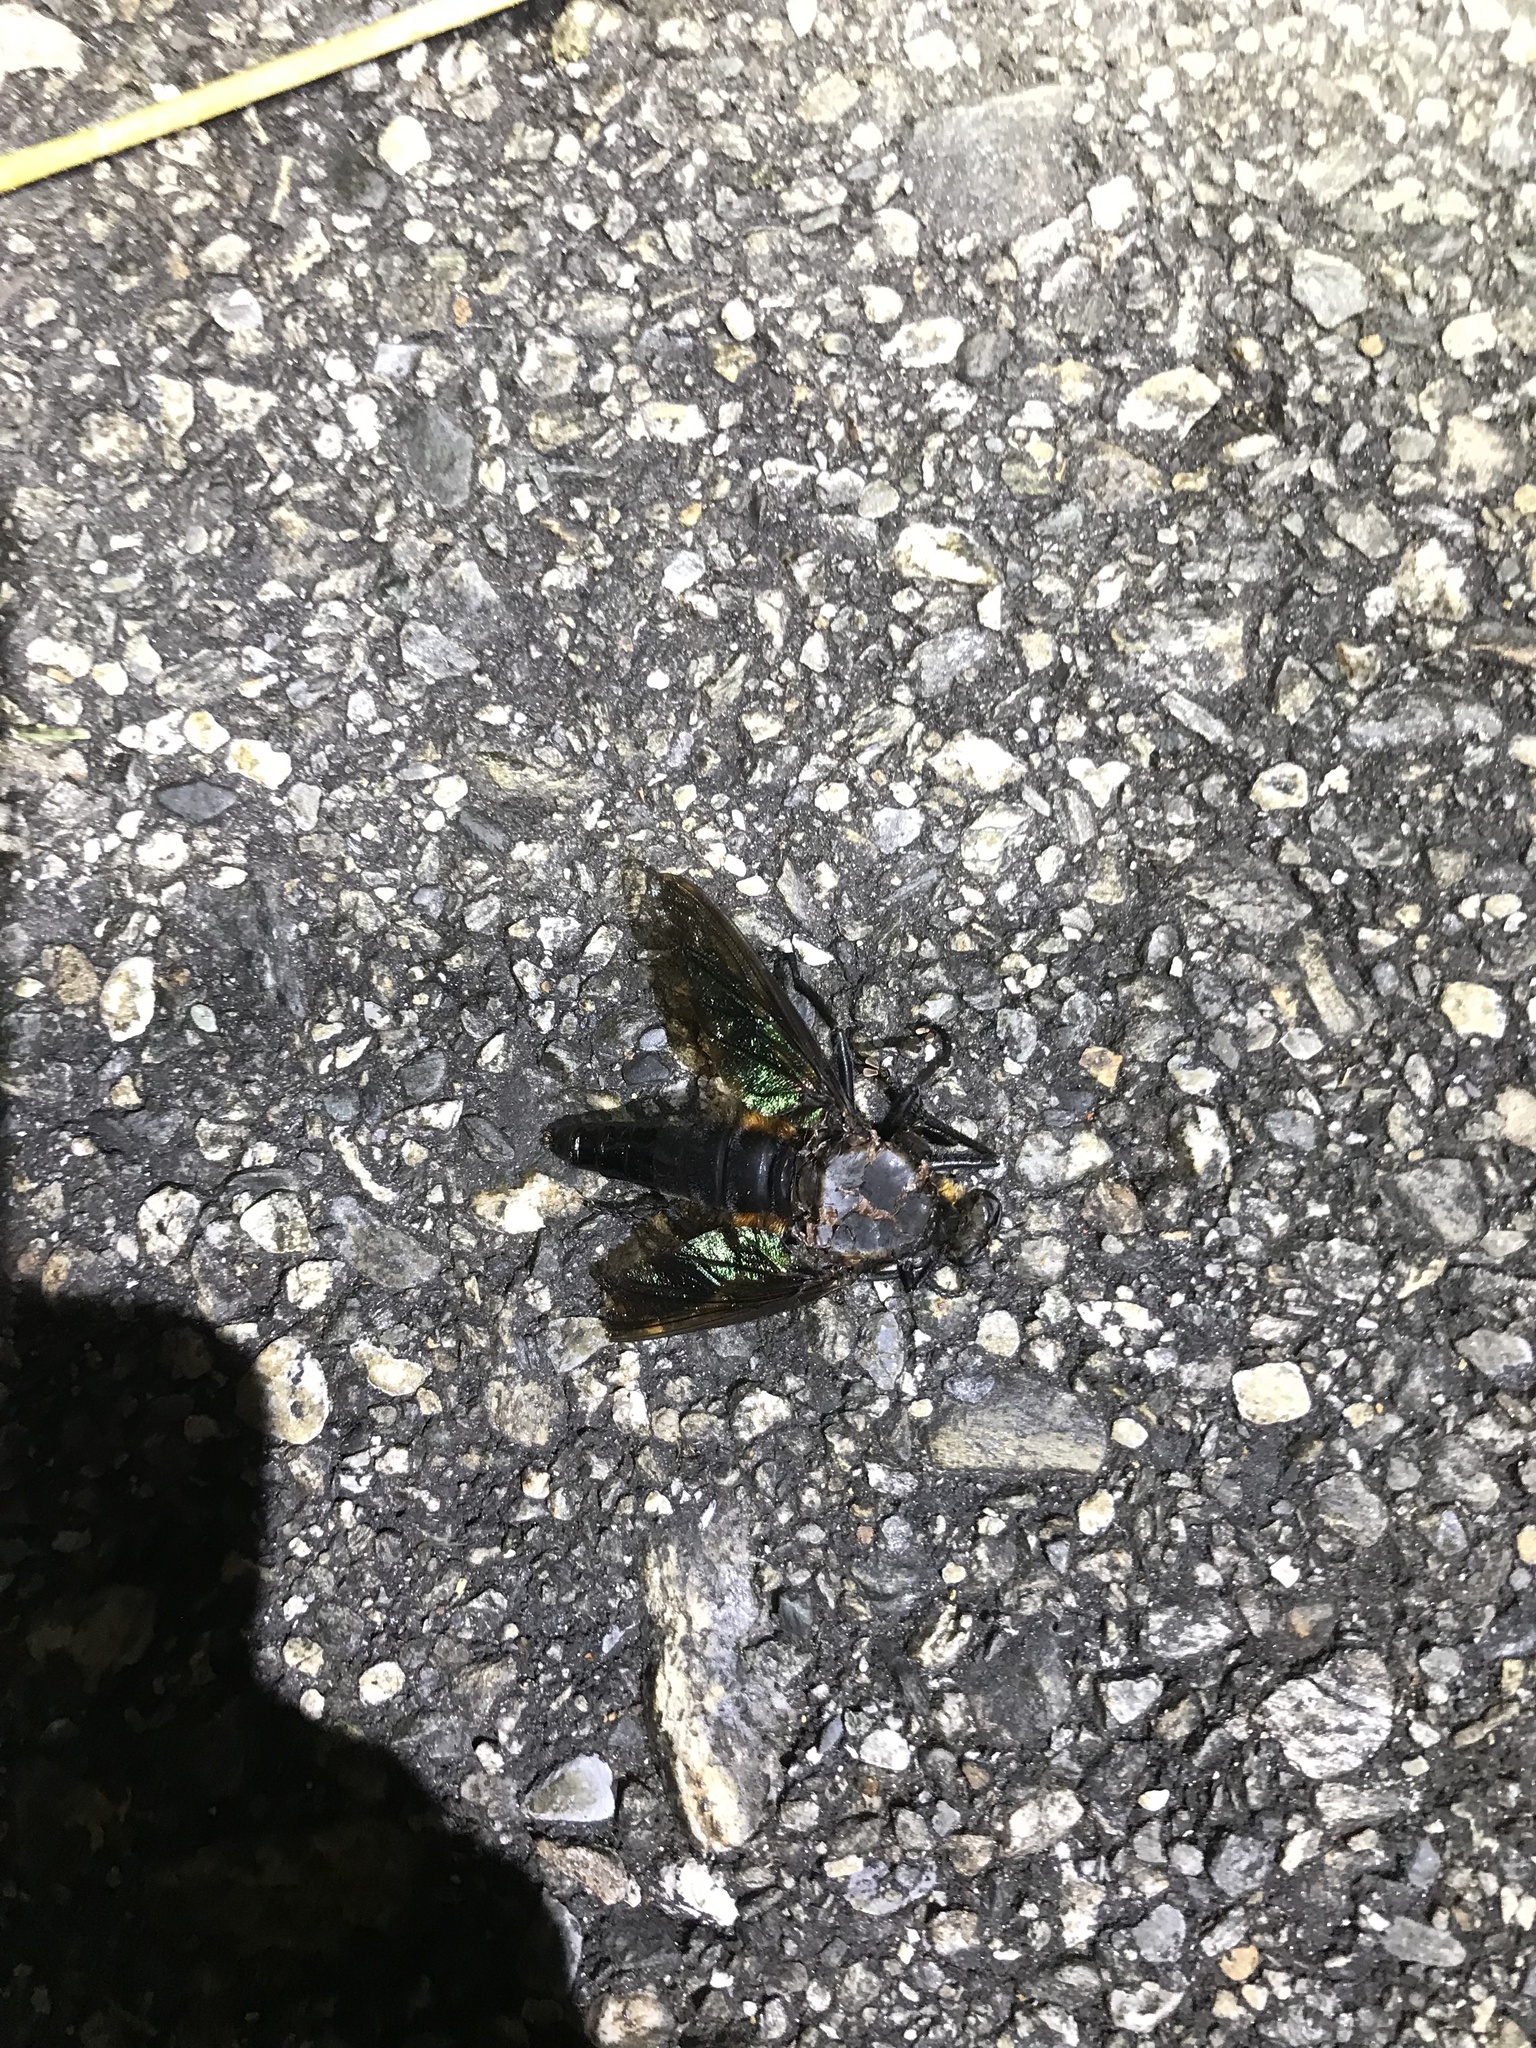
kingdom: Animalia
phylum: Arthropoda
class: Insecta
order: Diptera
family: Asilidae
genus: Microstylum
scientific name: Microstylum oberthurii
